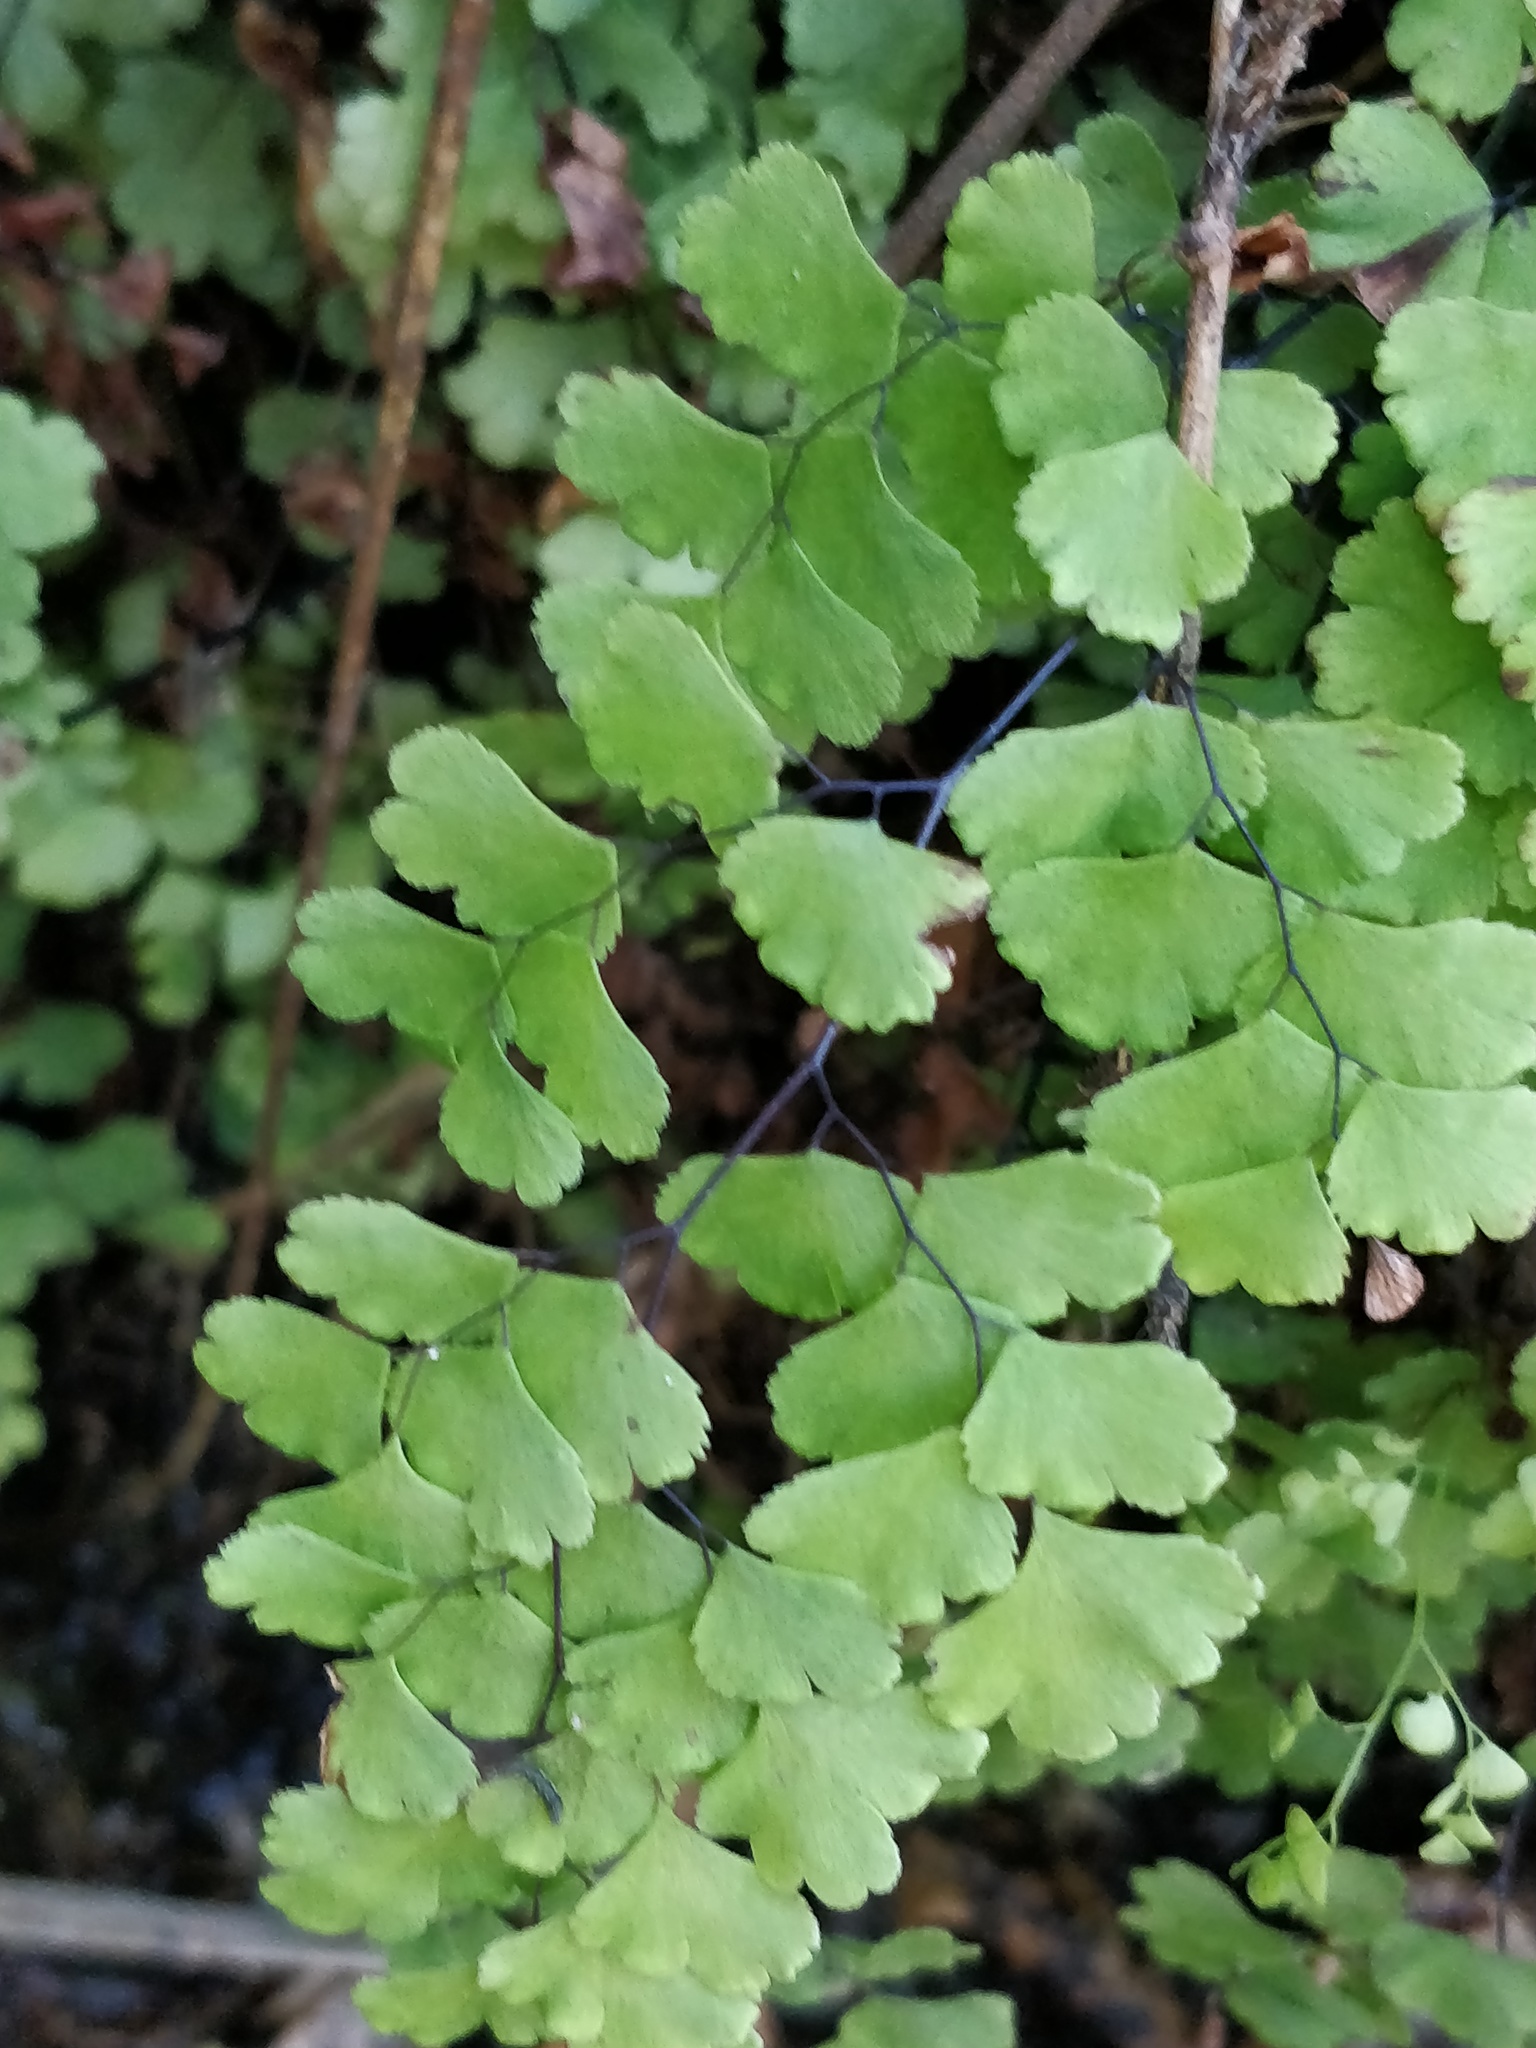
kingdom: Plantae
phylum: Tracheophyta
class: Polypodiopsida
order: Polypodiales
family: Pteridaceae
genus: Adiantum
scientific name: Adiantum aethiopicum
